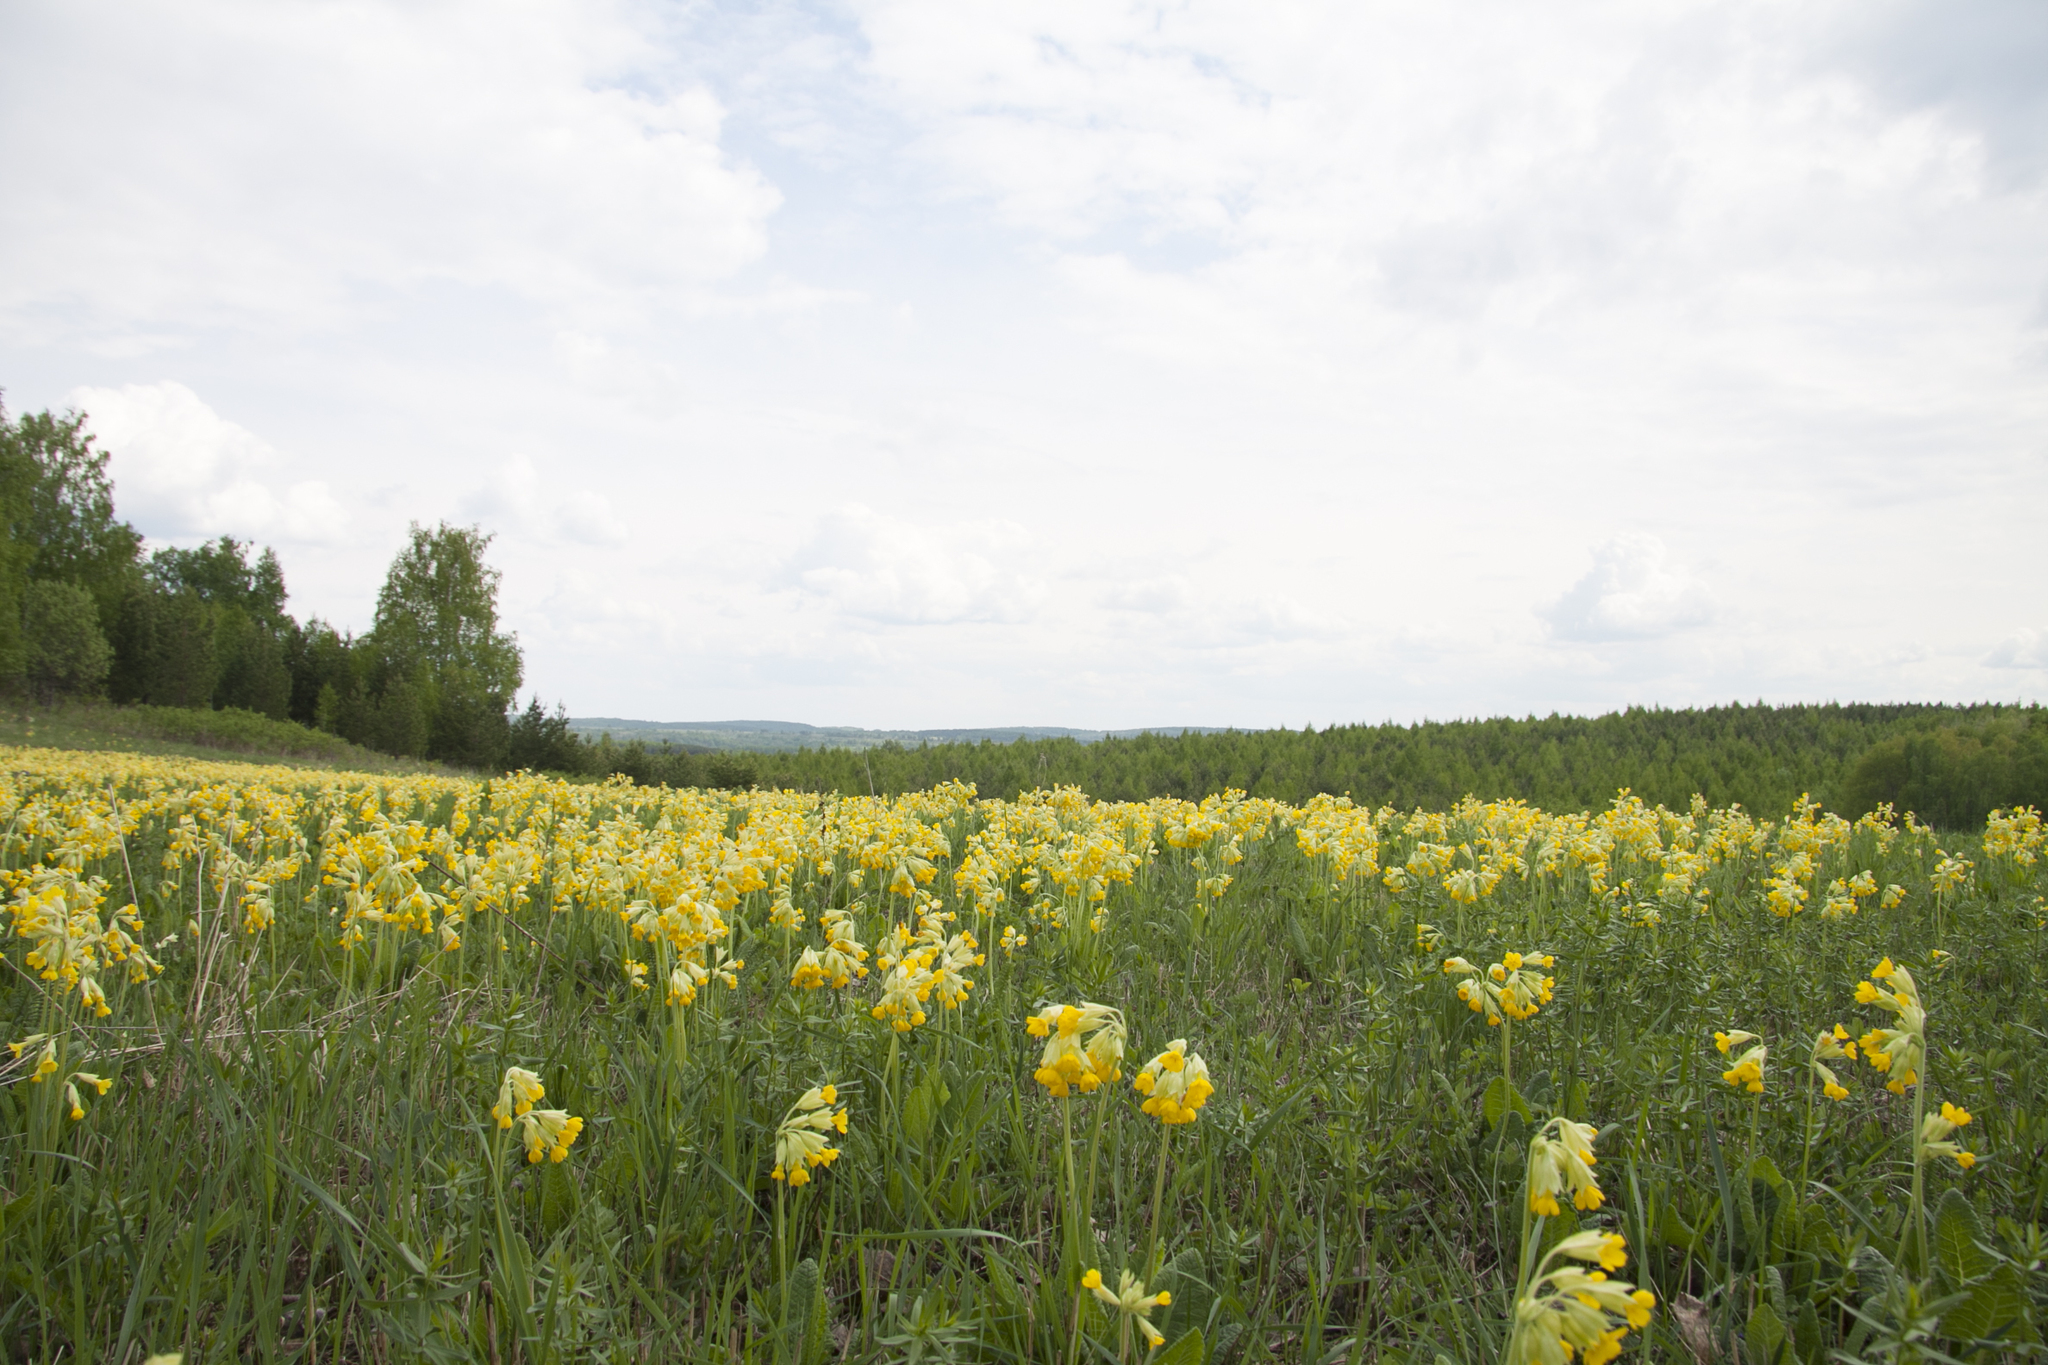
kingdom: Plantae
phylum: Tracheophyta
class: Magnoliopsida
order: Ericales
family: Primulaceae
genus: Primula
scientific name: Primula veris
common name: Cowslip
